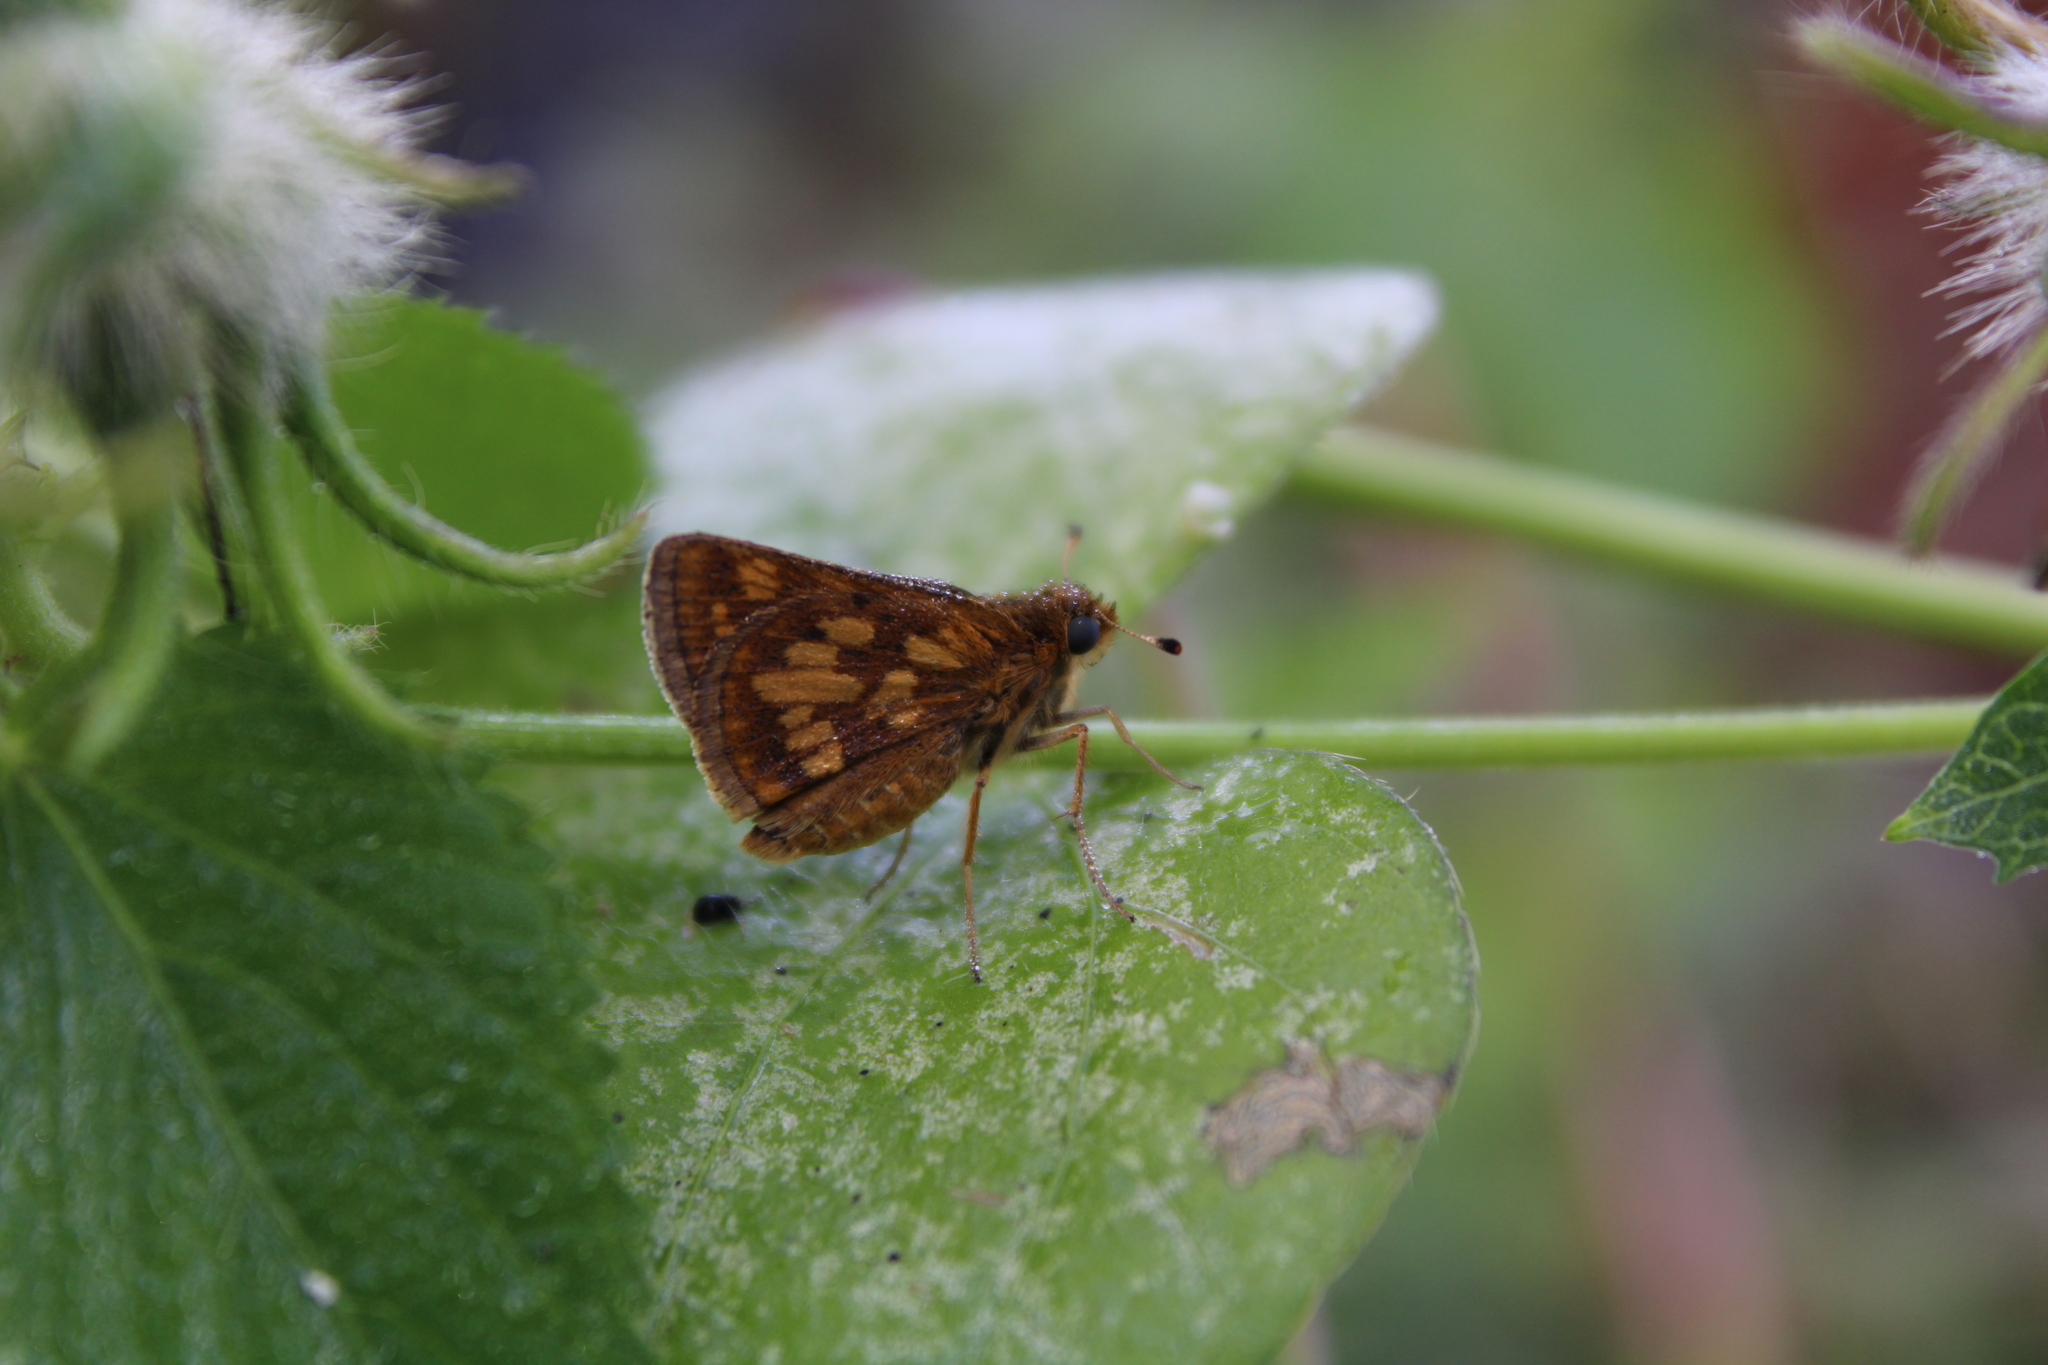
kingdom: Animalia
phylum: Arthropoda
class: Insecta
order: Lepidoptera
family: Hesperiidae
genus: Polites
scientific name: Polites coras
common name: Peck's skipper
